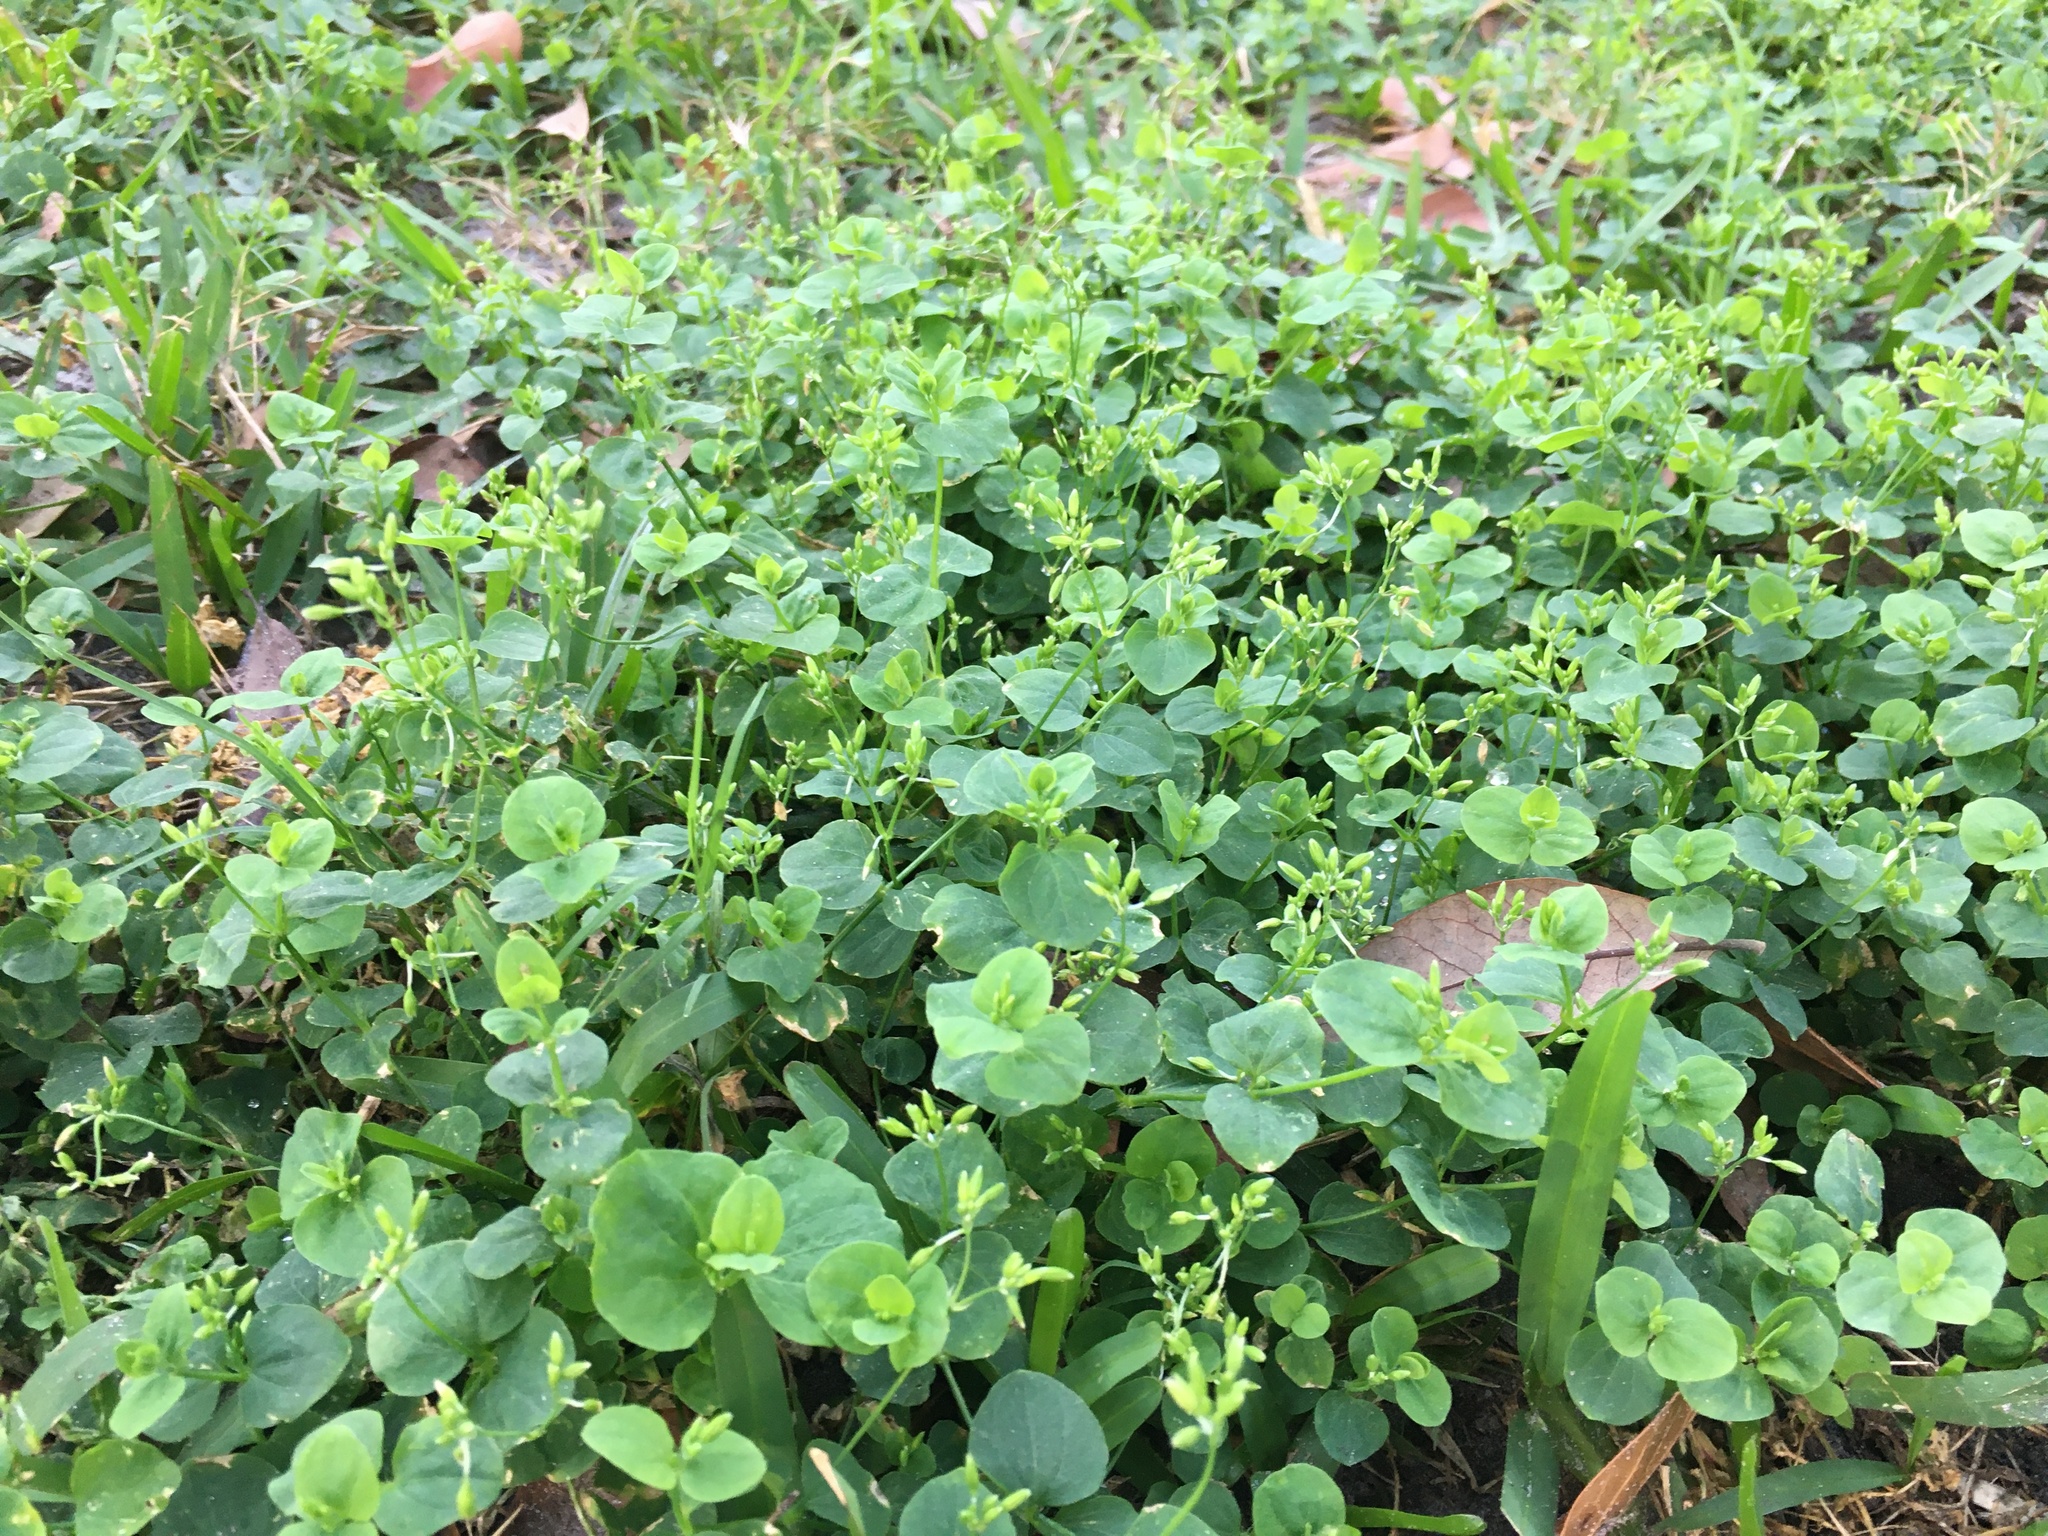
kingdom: Plantae
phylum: Tracheophyta
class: Magnoliopsida
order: Caryophyllales
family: Caryophyllaceae
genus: Drymaria
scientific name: Drymaria cordata
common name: Whitesnow
